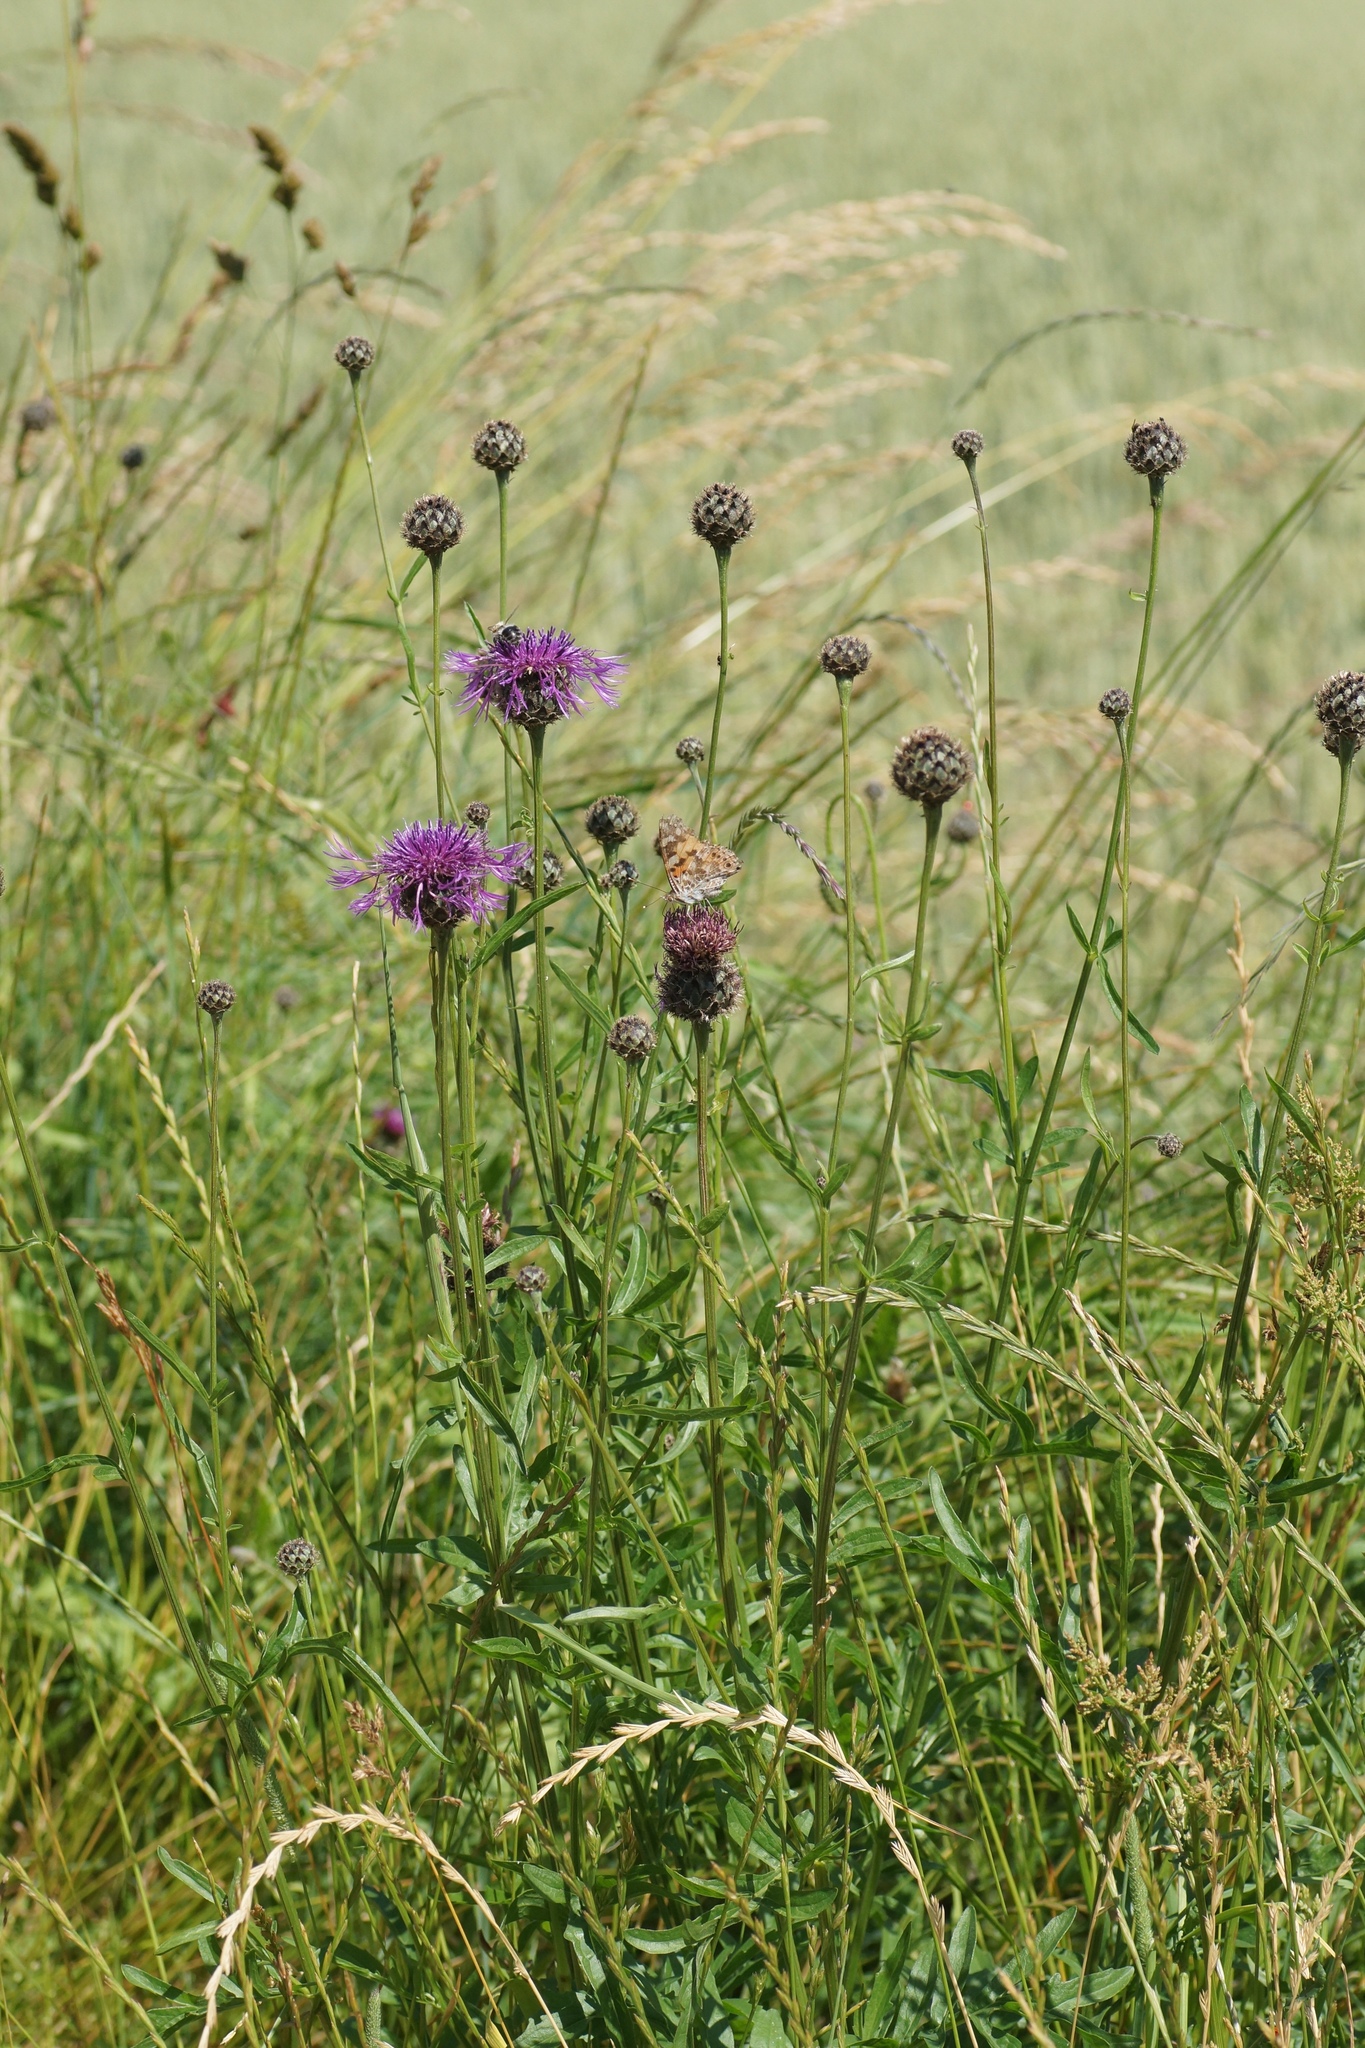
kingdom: Plantae
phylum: Tracheophyta
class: Magnoliopsida
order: Asterales
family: Asteraceae
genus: Centaurea
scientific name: Centaurea scabiosa
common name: Greater knapweed
